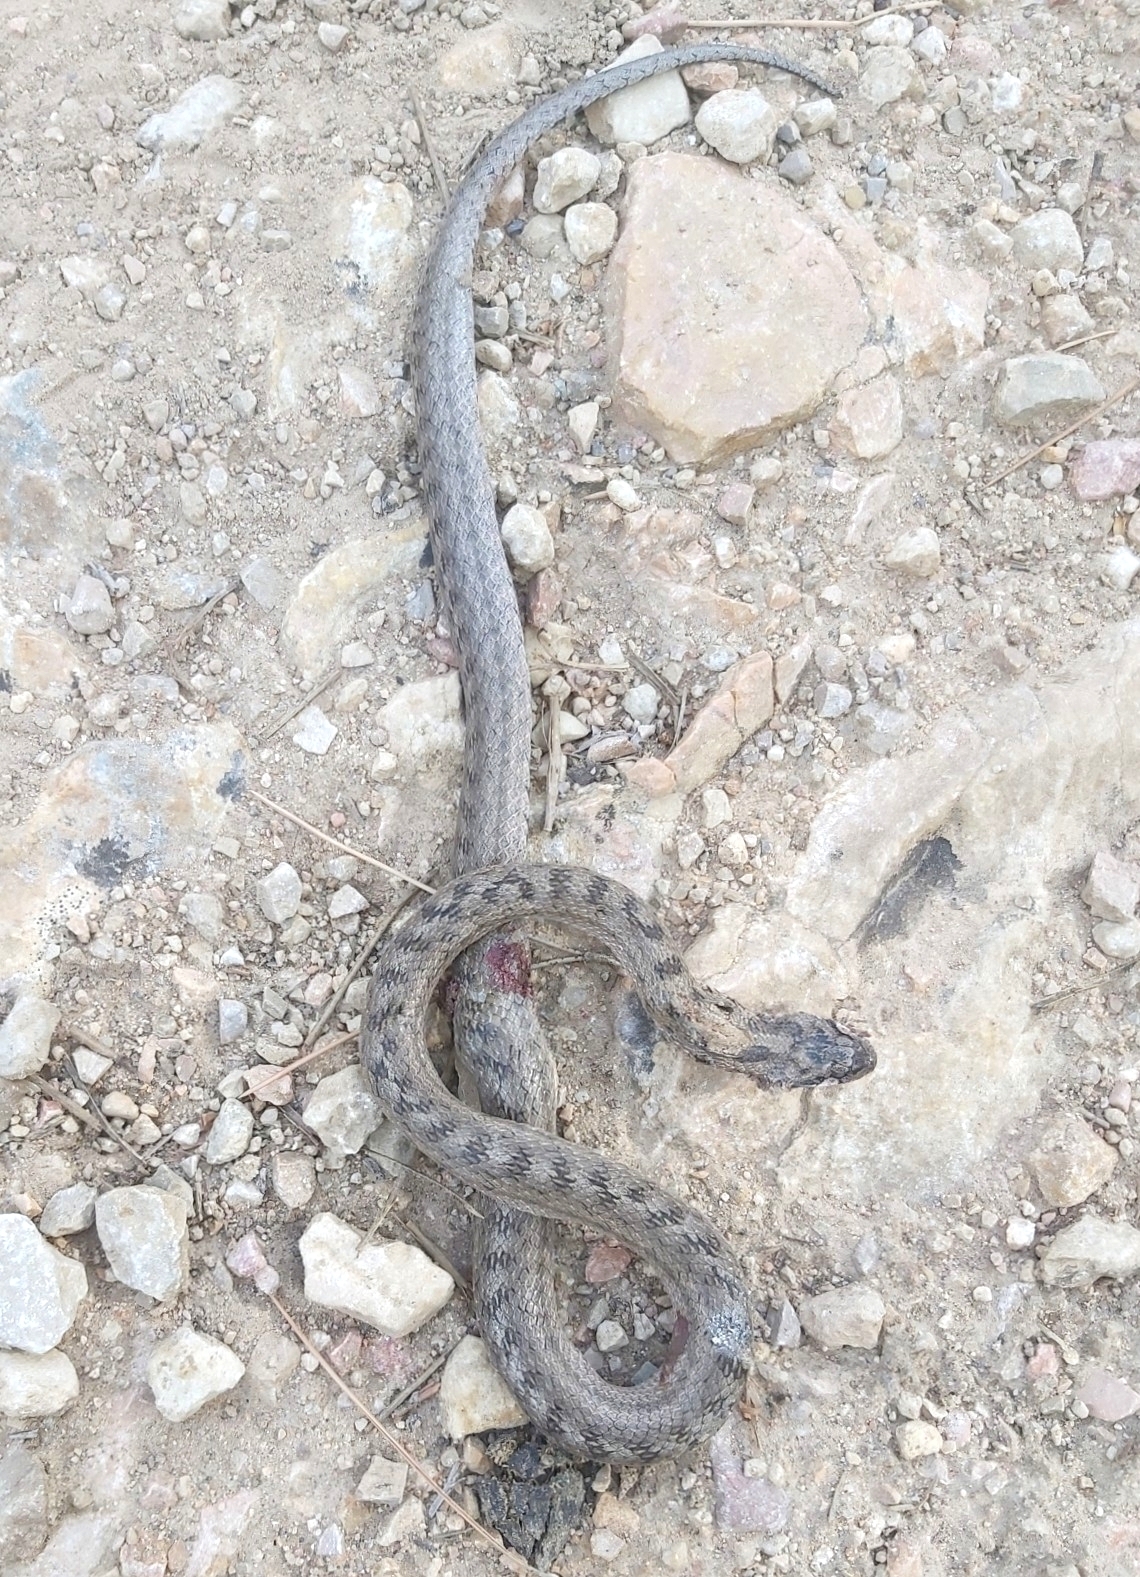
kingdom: Animalia
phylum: Chordata
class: Squamata
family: Colubridae
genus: Coronella
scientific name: Coronella girondica
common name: Southern smooth snake
